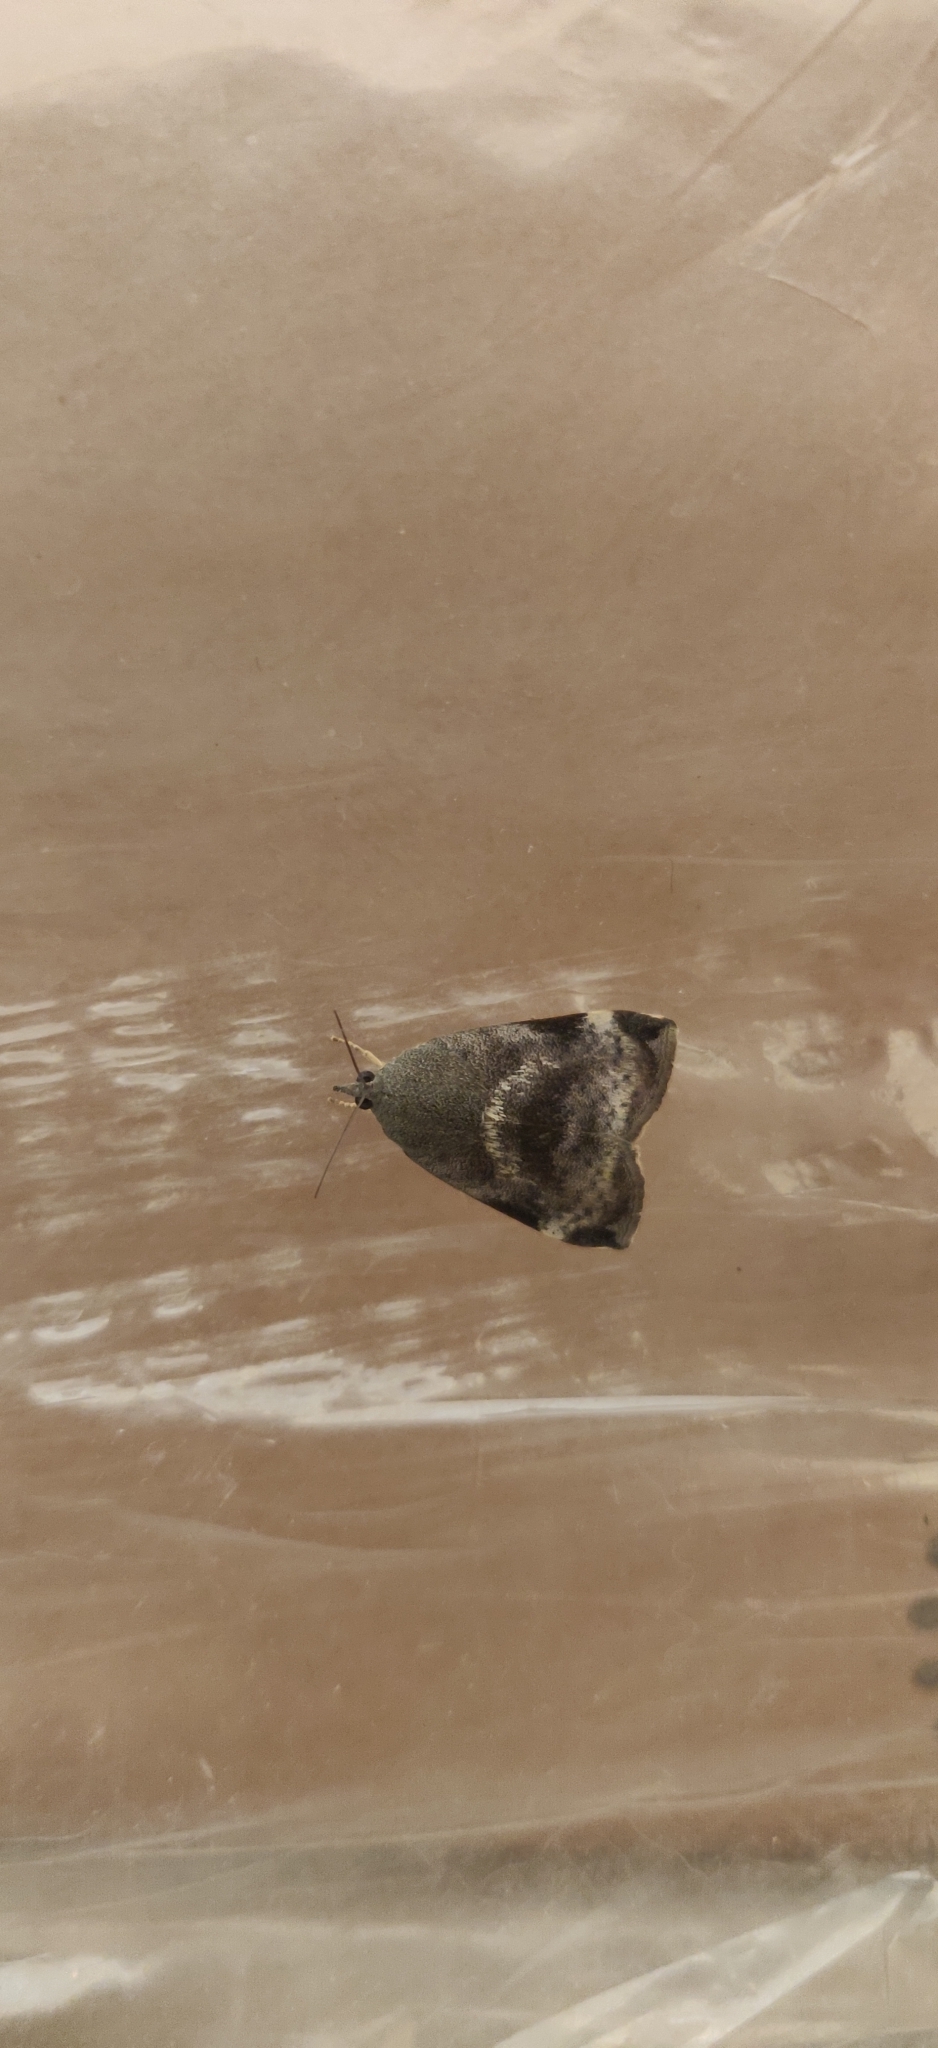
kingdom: Animalia
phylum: Arthropoda
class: Insecta
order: Lepidoptera
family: Hyblaeidae
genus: Hyblaea
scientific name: Hyblaea puera
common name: Teak defoliator moth
